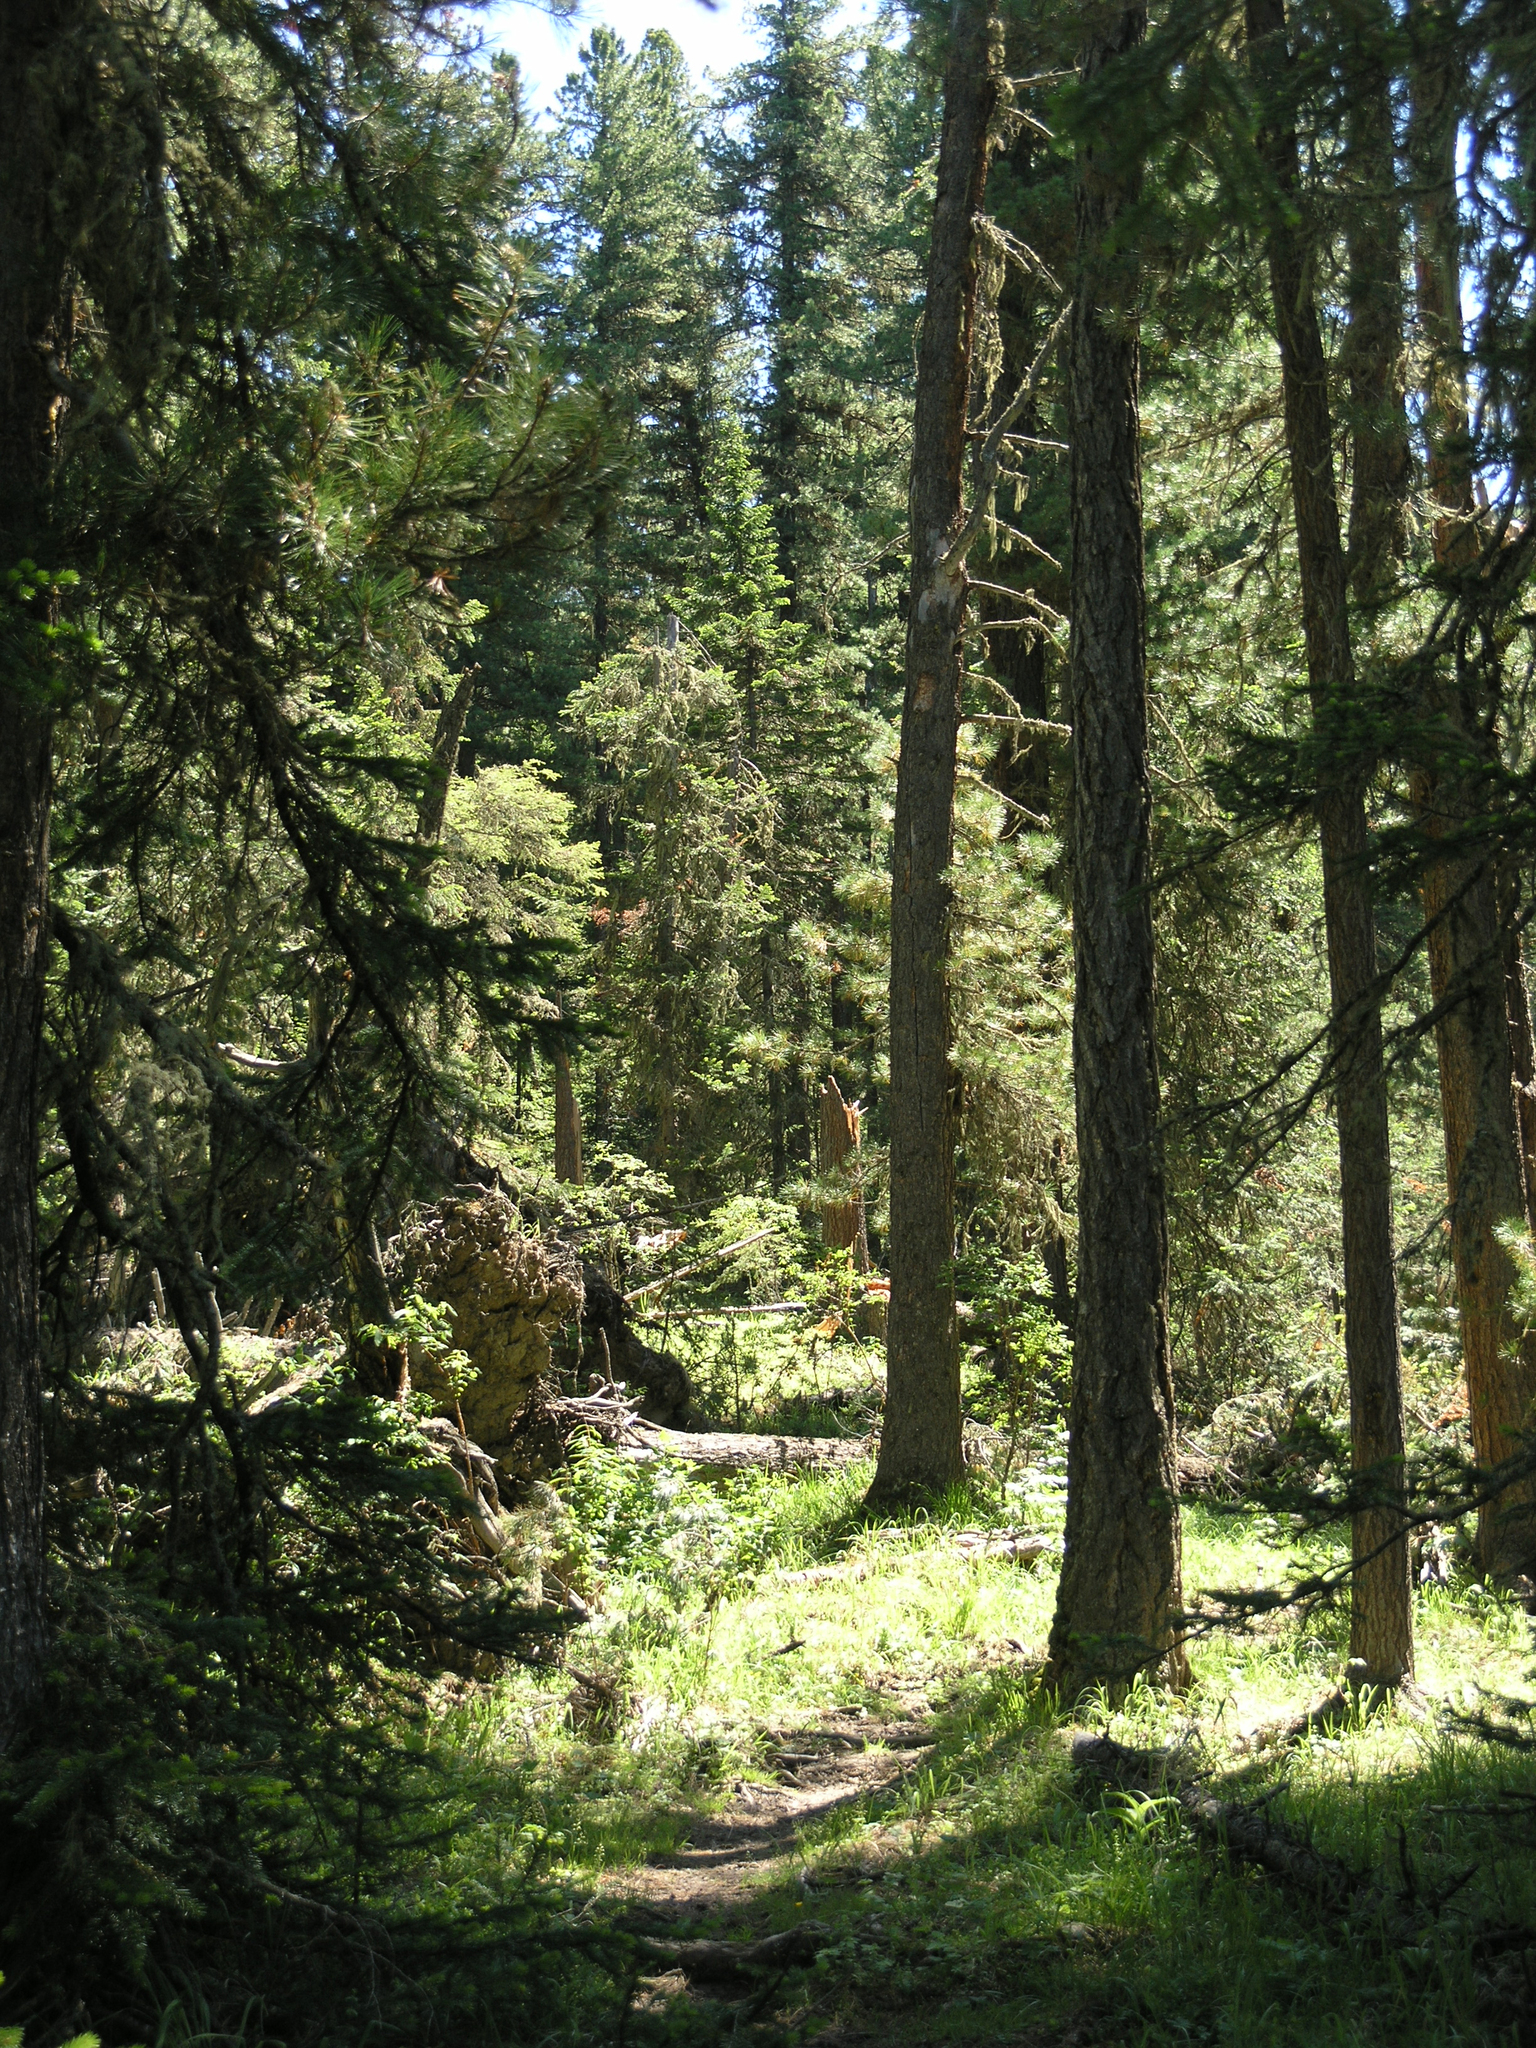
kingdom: Plantae
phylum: Tracheophyta
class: Pinopsida
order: Pinales
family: Pinaceae
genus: Picea
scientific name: Picea obovata
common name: Siberian spruce
